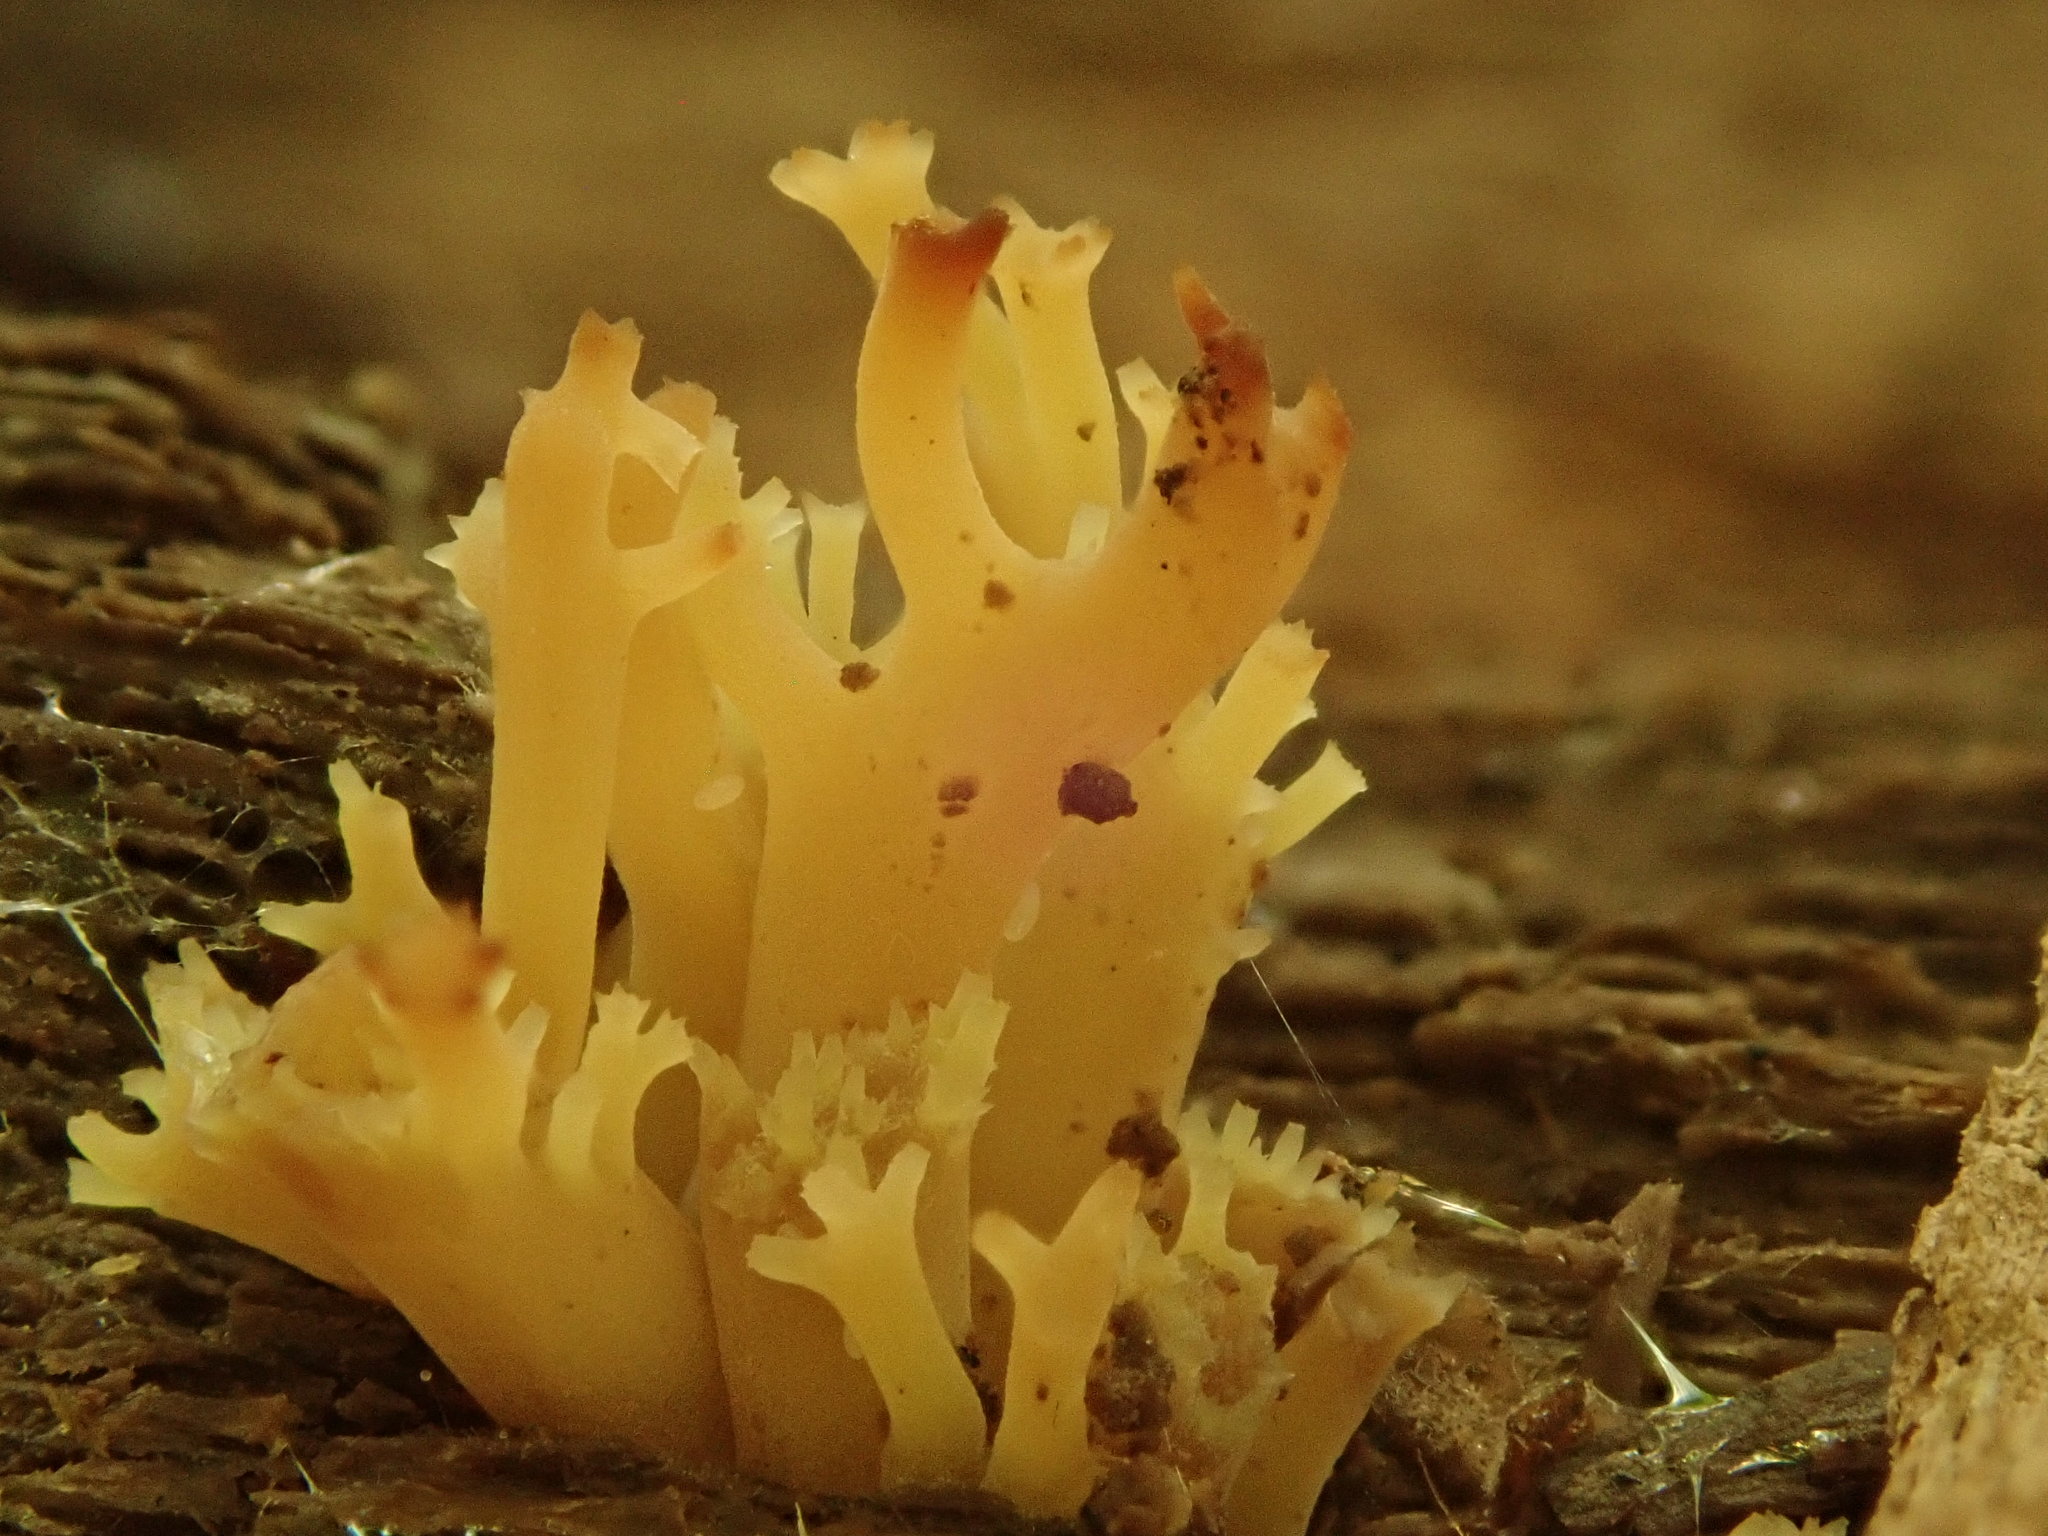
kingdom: Fungi
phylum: Basidiomycota
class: Agaricomycetes
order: Russulales
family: Auriscalpiaceae
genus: Artomyces
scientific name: Artomyces pyxidatus
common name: Crown-tipped coral fungus
